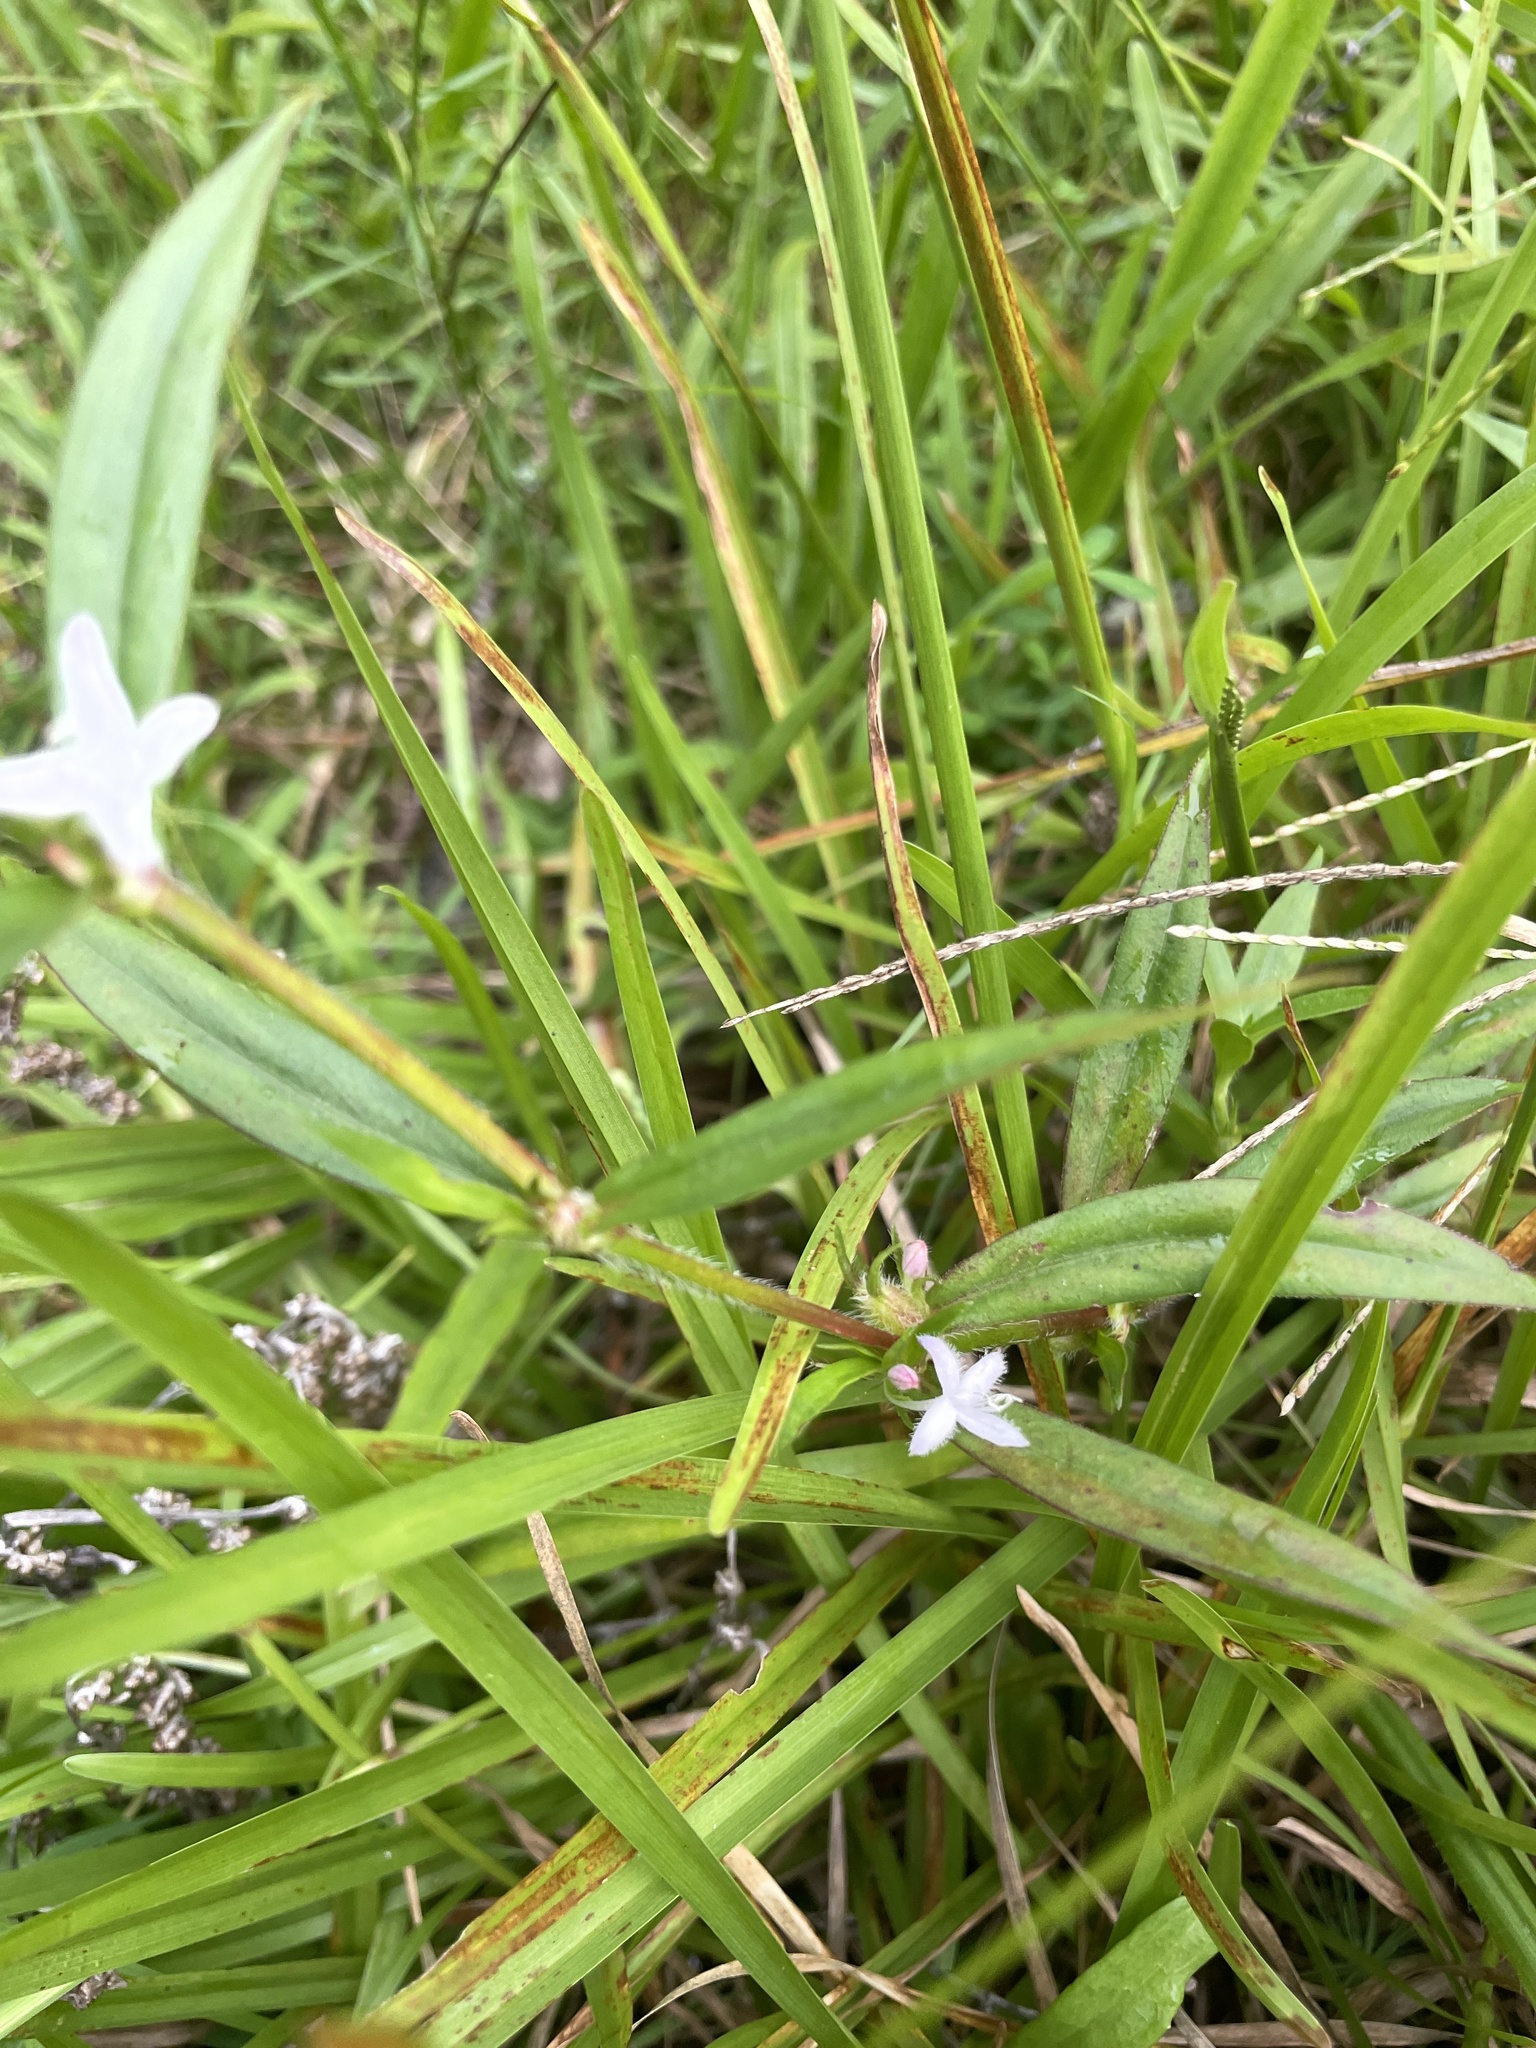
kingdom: Plantae
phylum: Tracheophyta
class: Magnoliopsida
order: Gentianales
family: Rubiaceae
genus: Diodia
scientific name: Diodia virginiana
